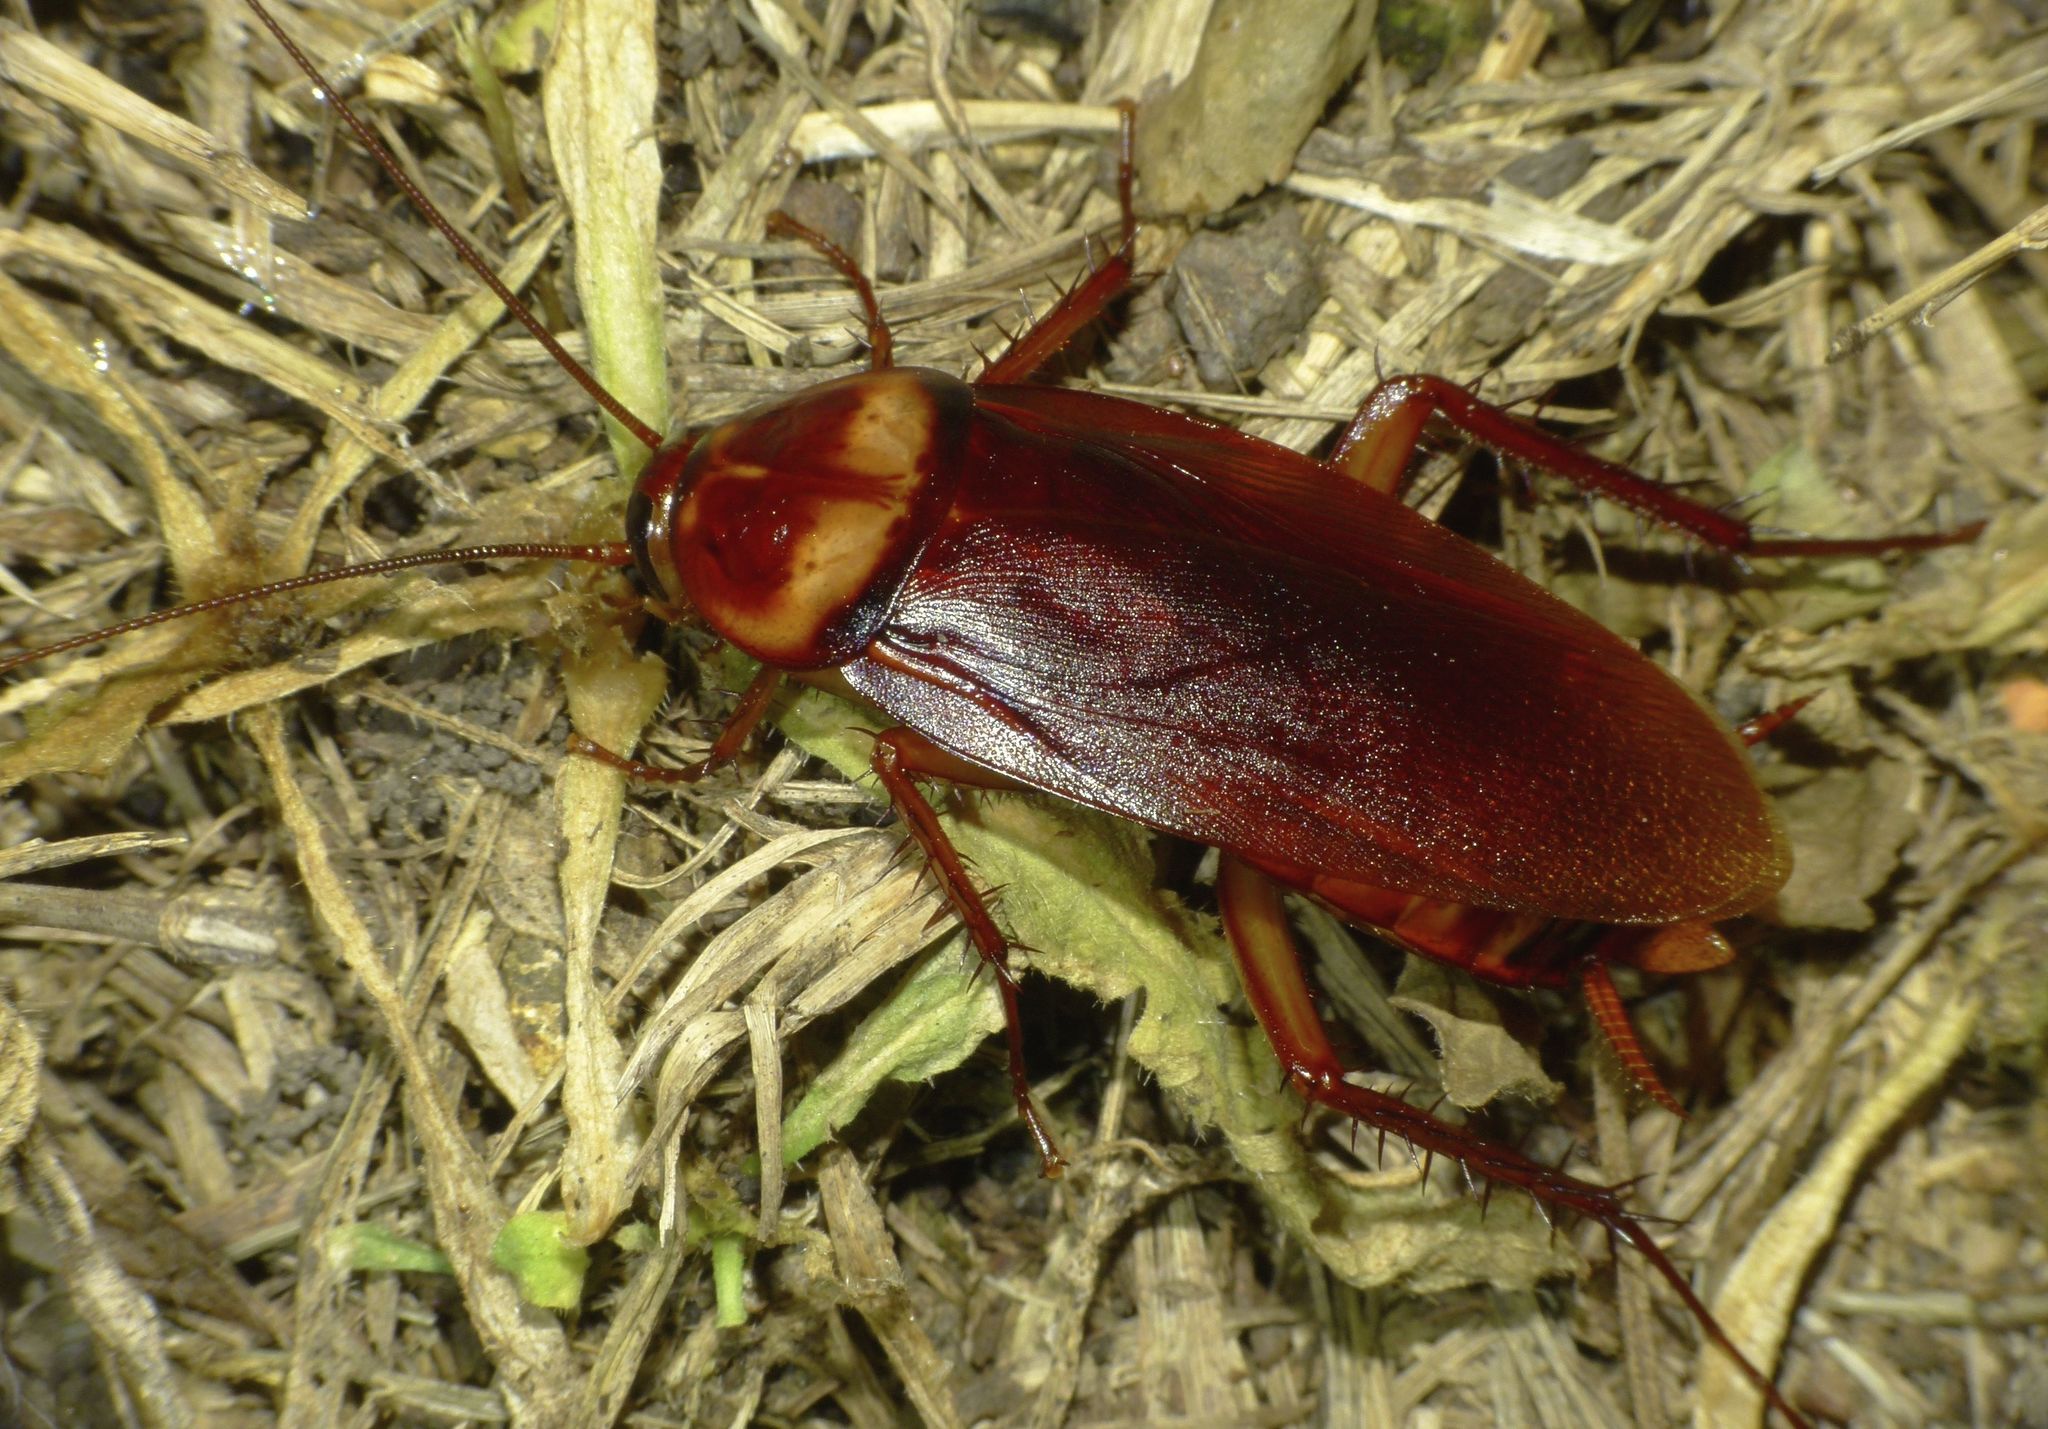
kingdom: Animalia
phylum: Arthropoda
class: Insecta
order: Blattodea
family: Blattidae
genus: Periplaneta
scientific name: Periplaneta americana
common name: American cockroach
